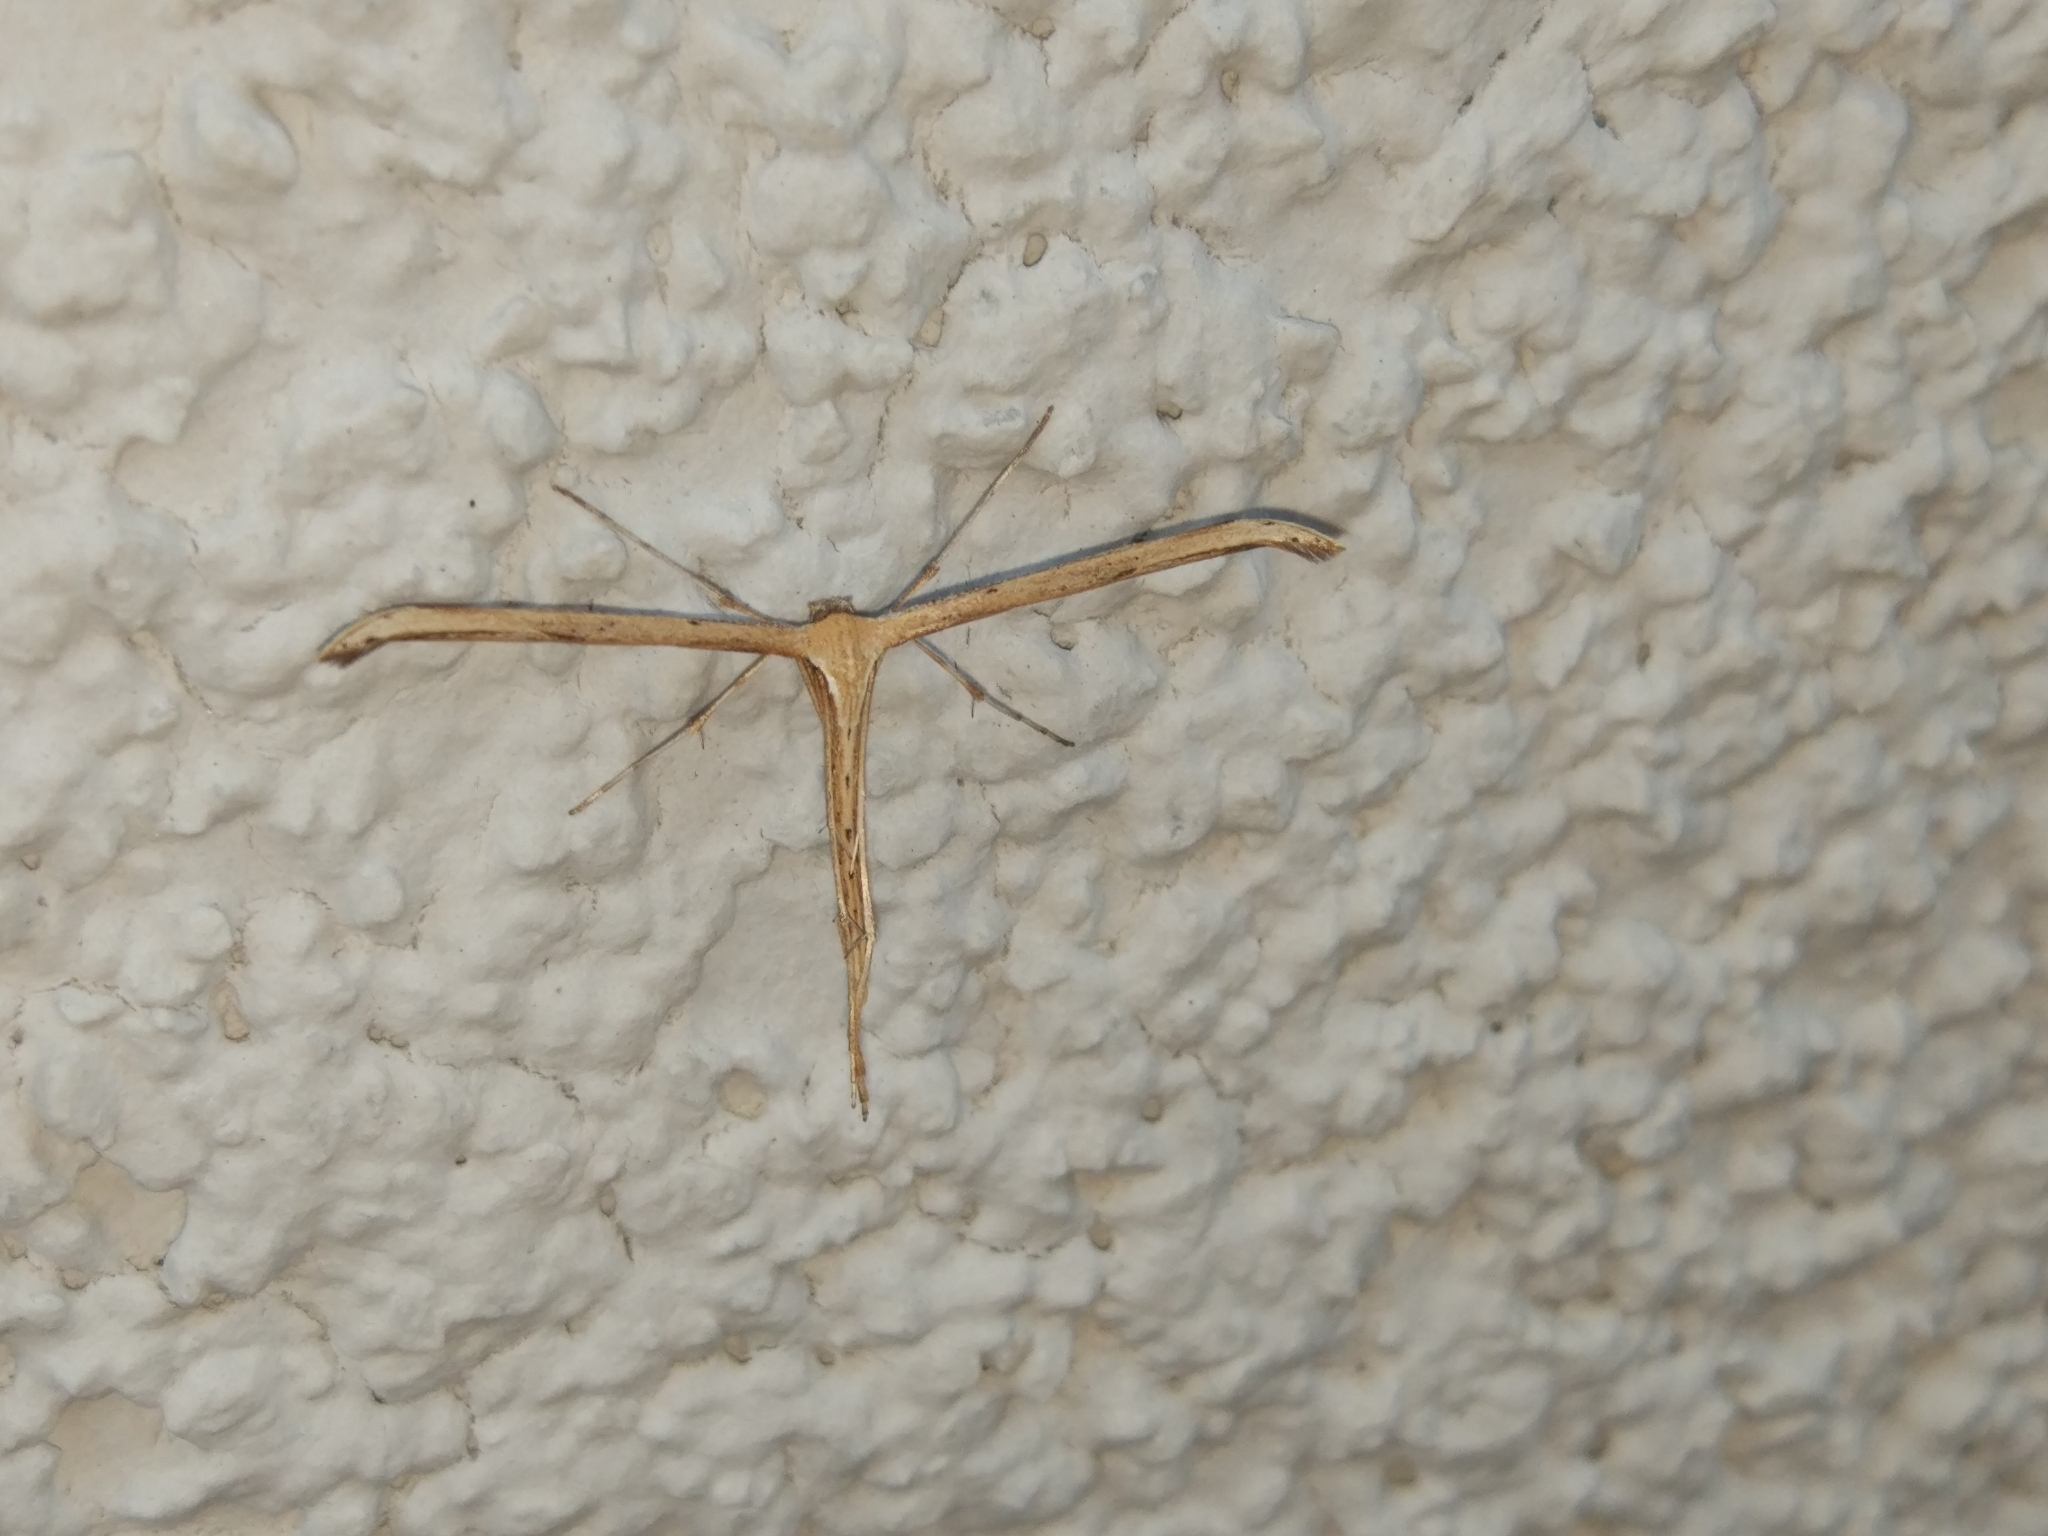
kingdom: Animalia
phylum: Arthropoda
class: Insecta
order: Lepidoptera
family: Pterophoridae
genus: Emmelina
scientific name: Emmelina monodactyla
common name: Common plume
